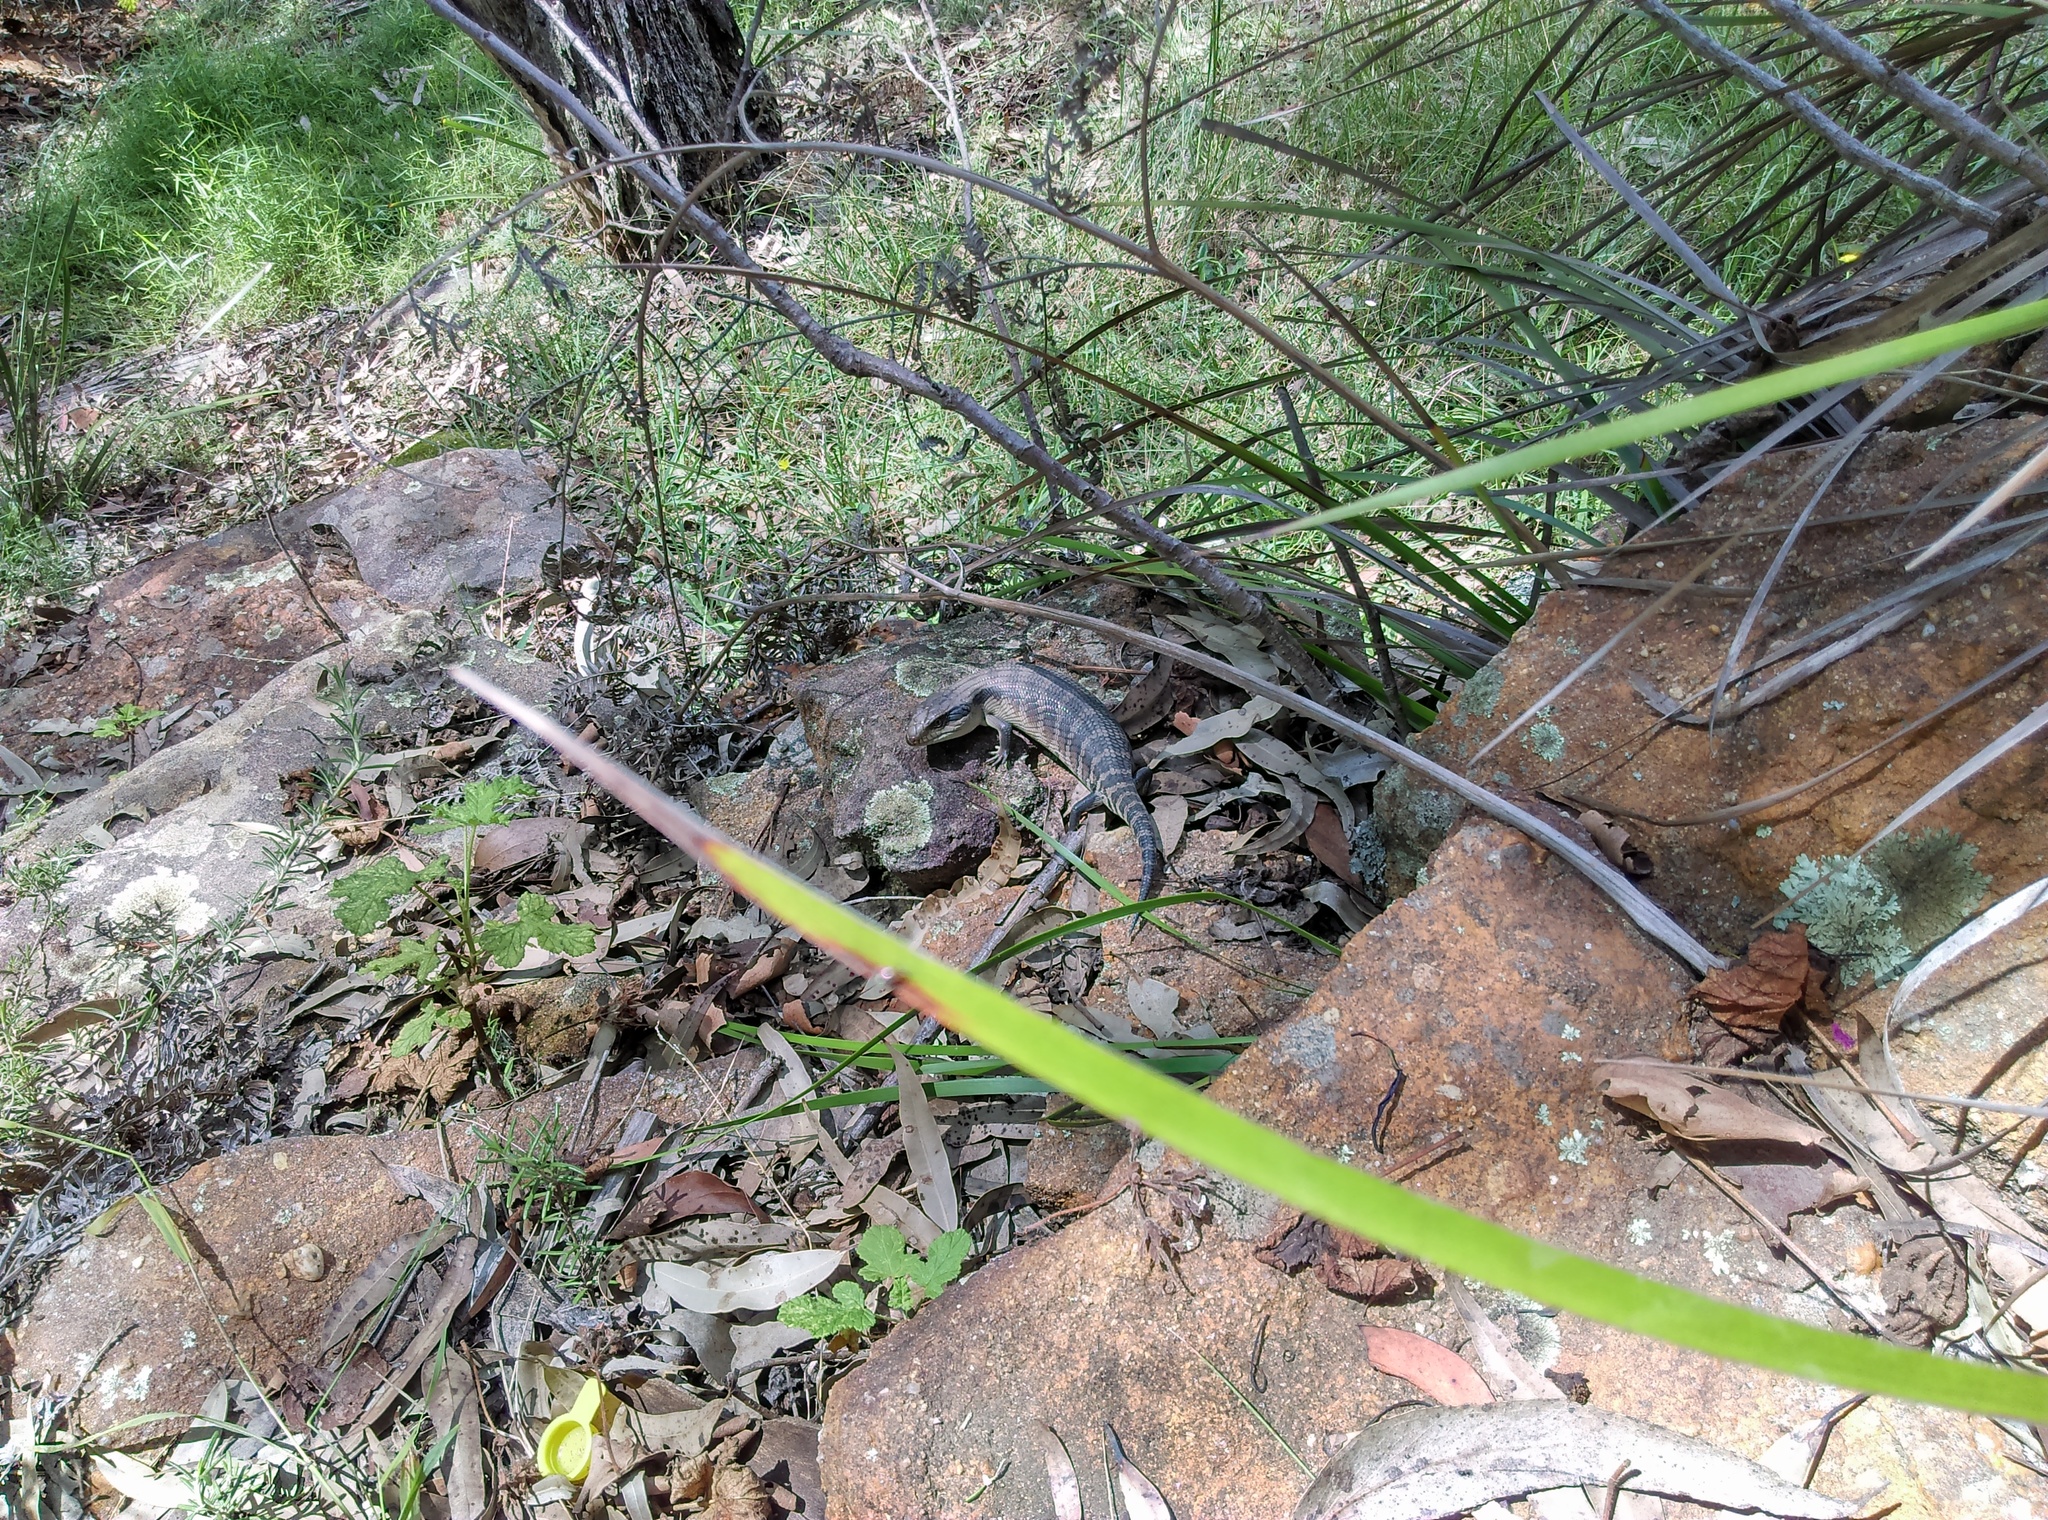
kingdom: Animalia
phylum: Chordata
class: Squamata
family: Scincidae
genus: Tiliqua
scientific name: Tiliqua scincoides
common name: Common bluetongue
